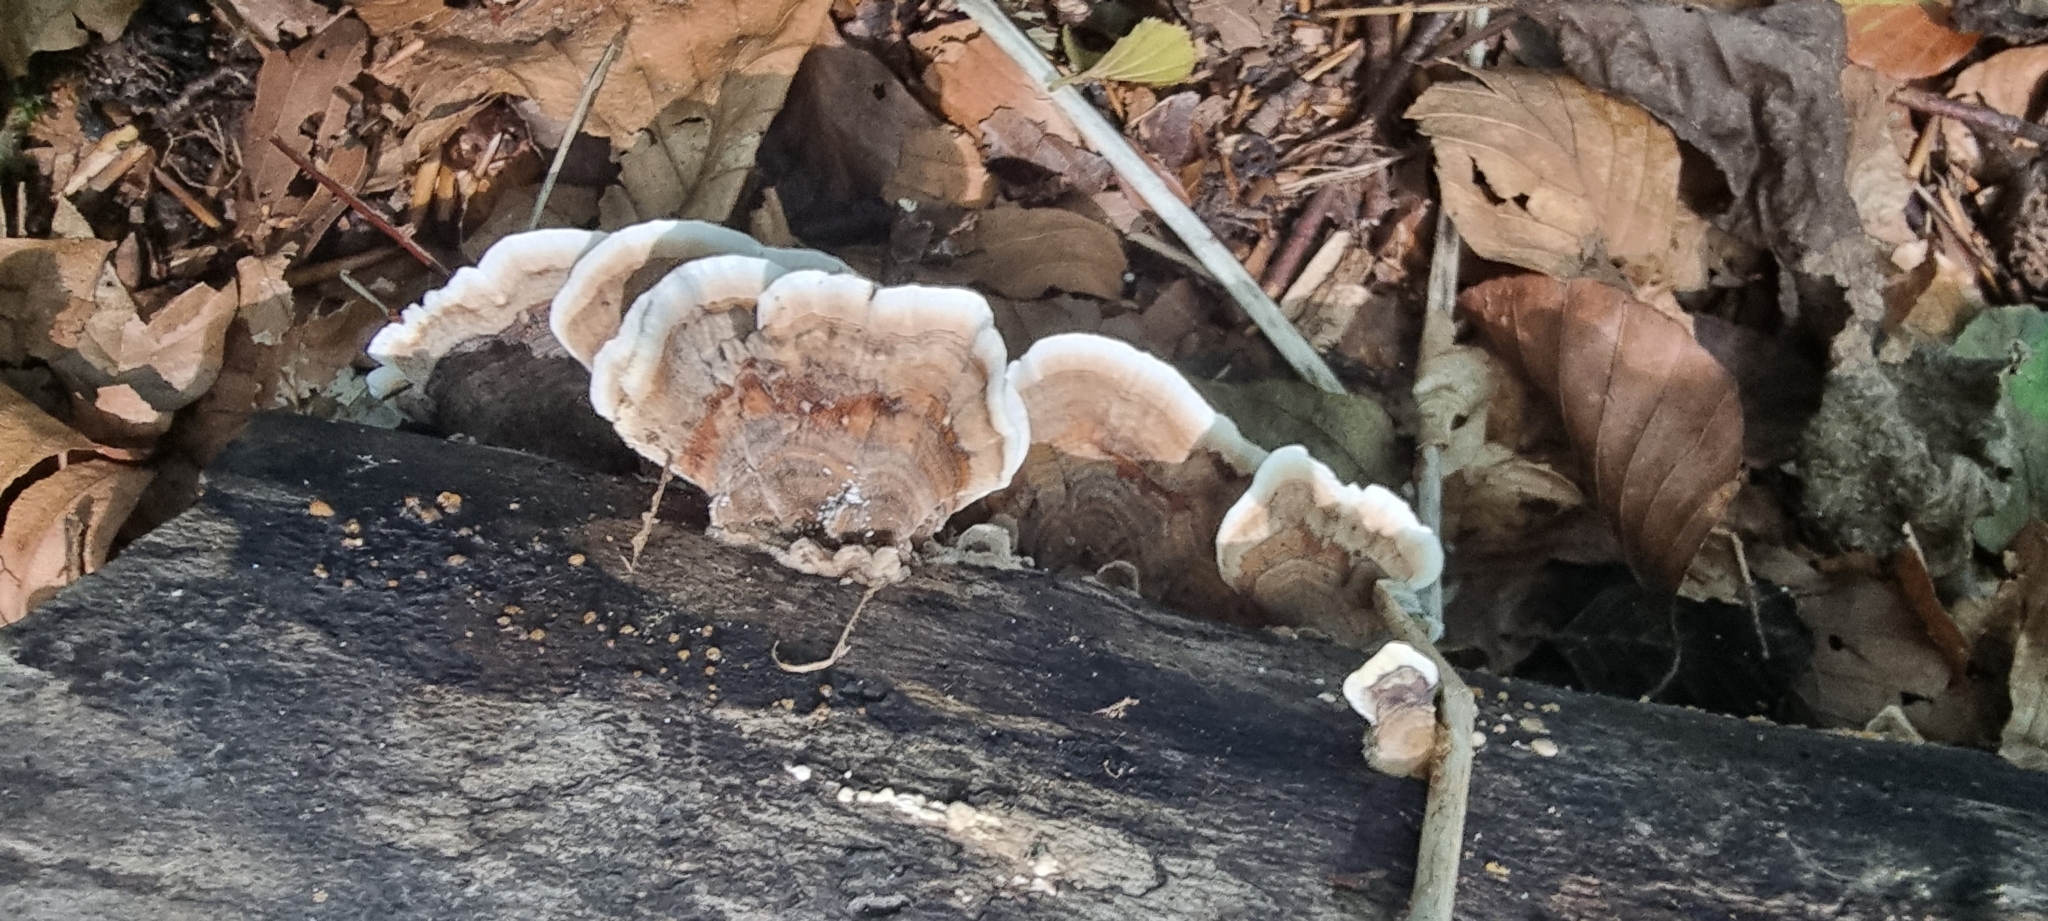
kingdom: Fungi
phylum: Basidiomycota
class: Agaricomycetes
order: Polyporales
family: Polyporaceae
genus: Trametes
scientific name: Trametes versicolor
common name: Turkeytail
